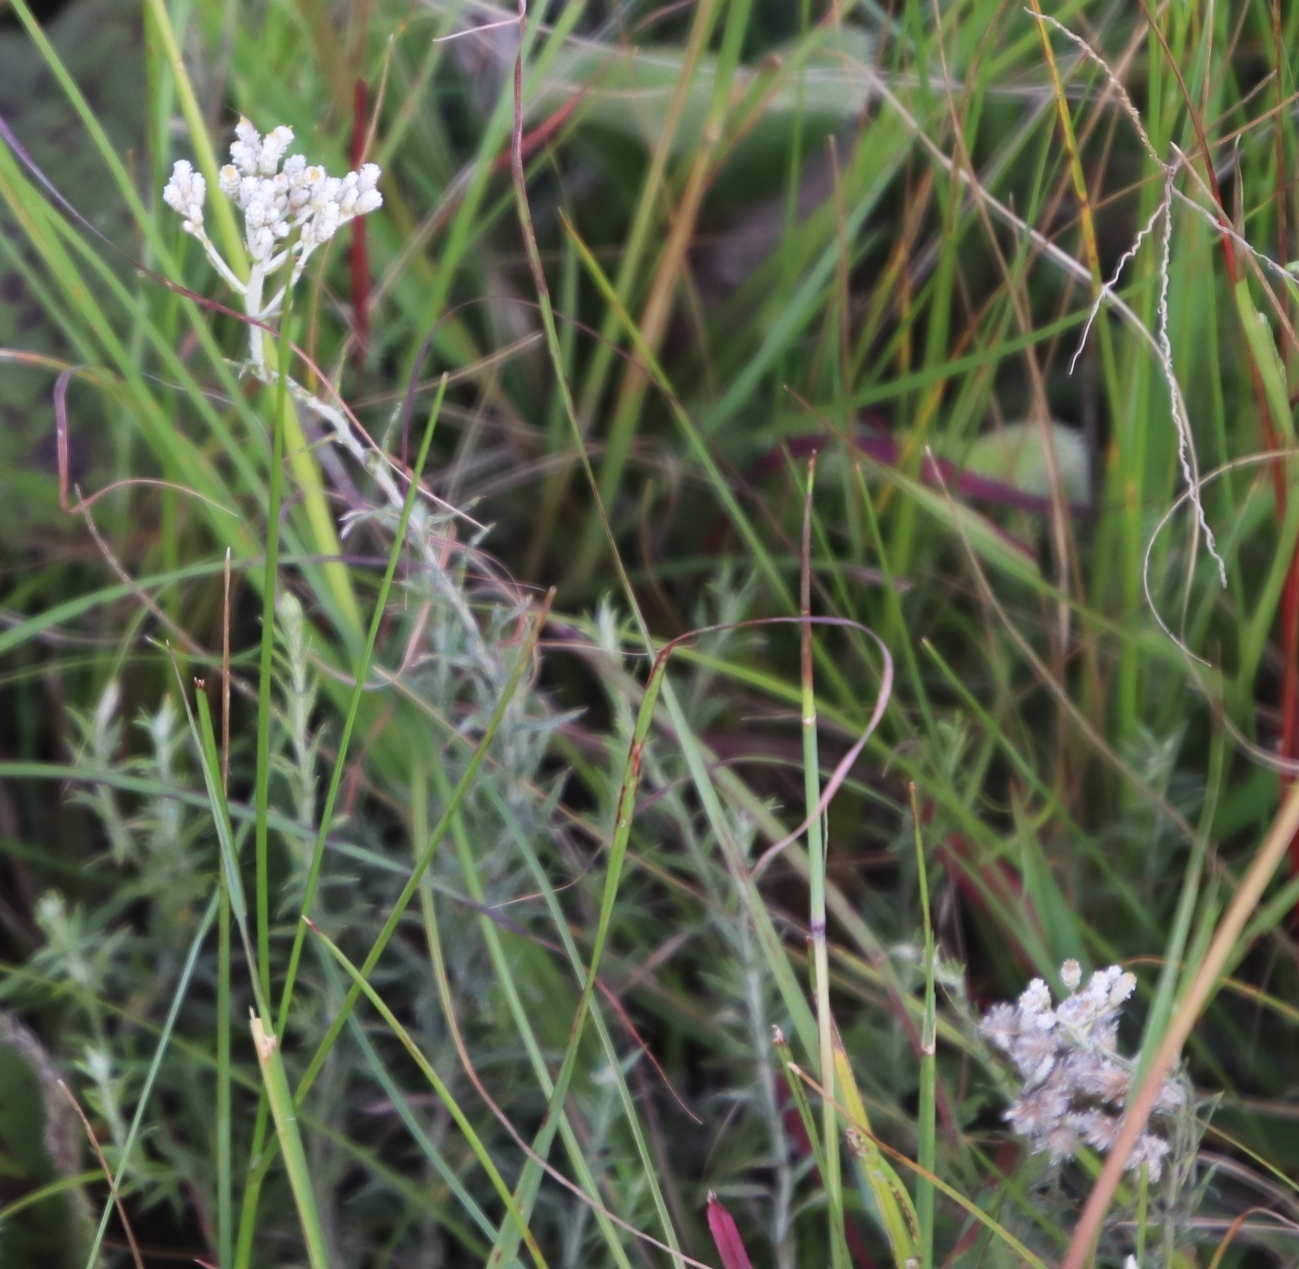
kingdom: Plantae
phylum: Tracheophyta
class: Magnoliopsida
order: Asterales
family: Asteraceae
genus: Helichrysum
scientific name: Helichrysum rugulosum
